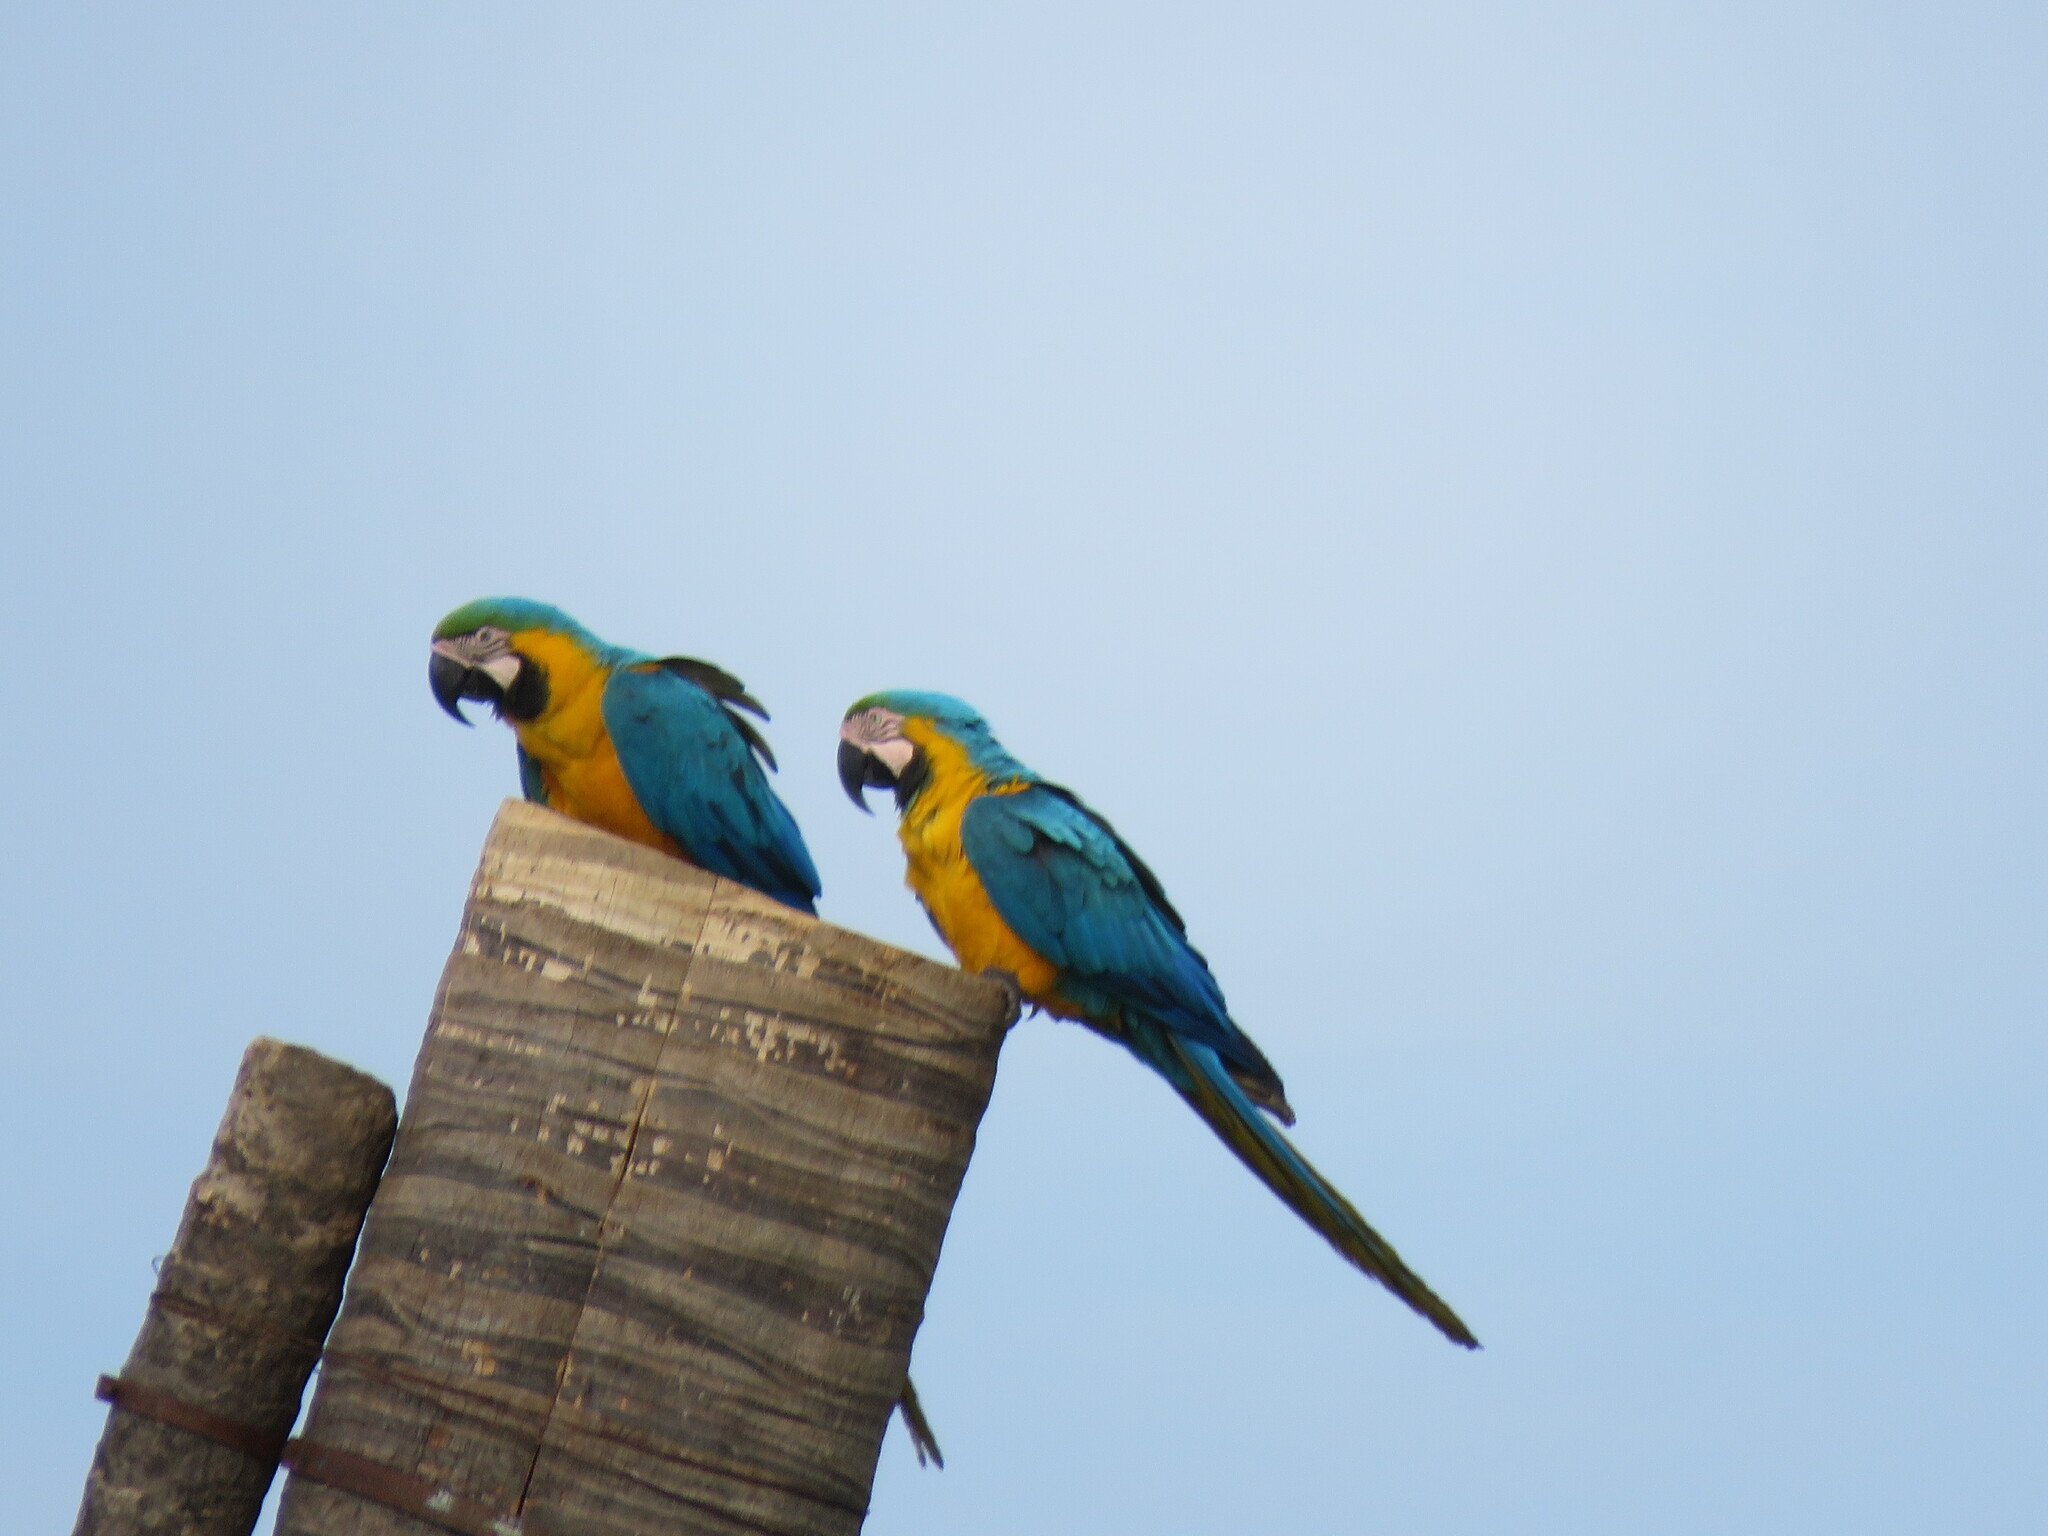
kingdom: Animalia
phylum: Chordata
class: Aves
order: Psittaciformes
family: Psittacidae
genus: Ara
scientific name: Ara ararauna
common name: Blue-and-yellow macaw
